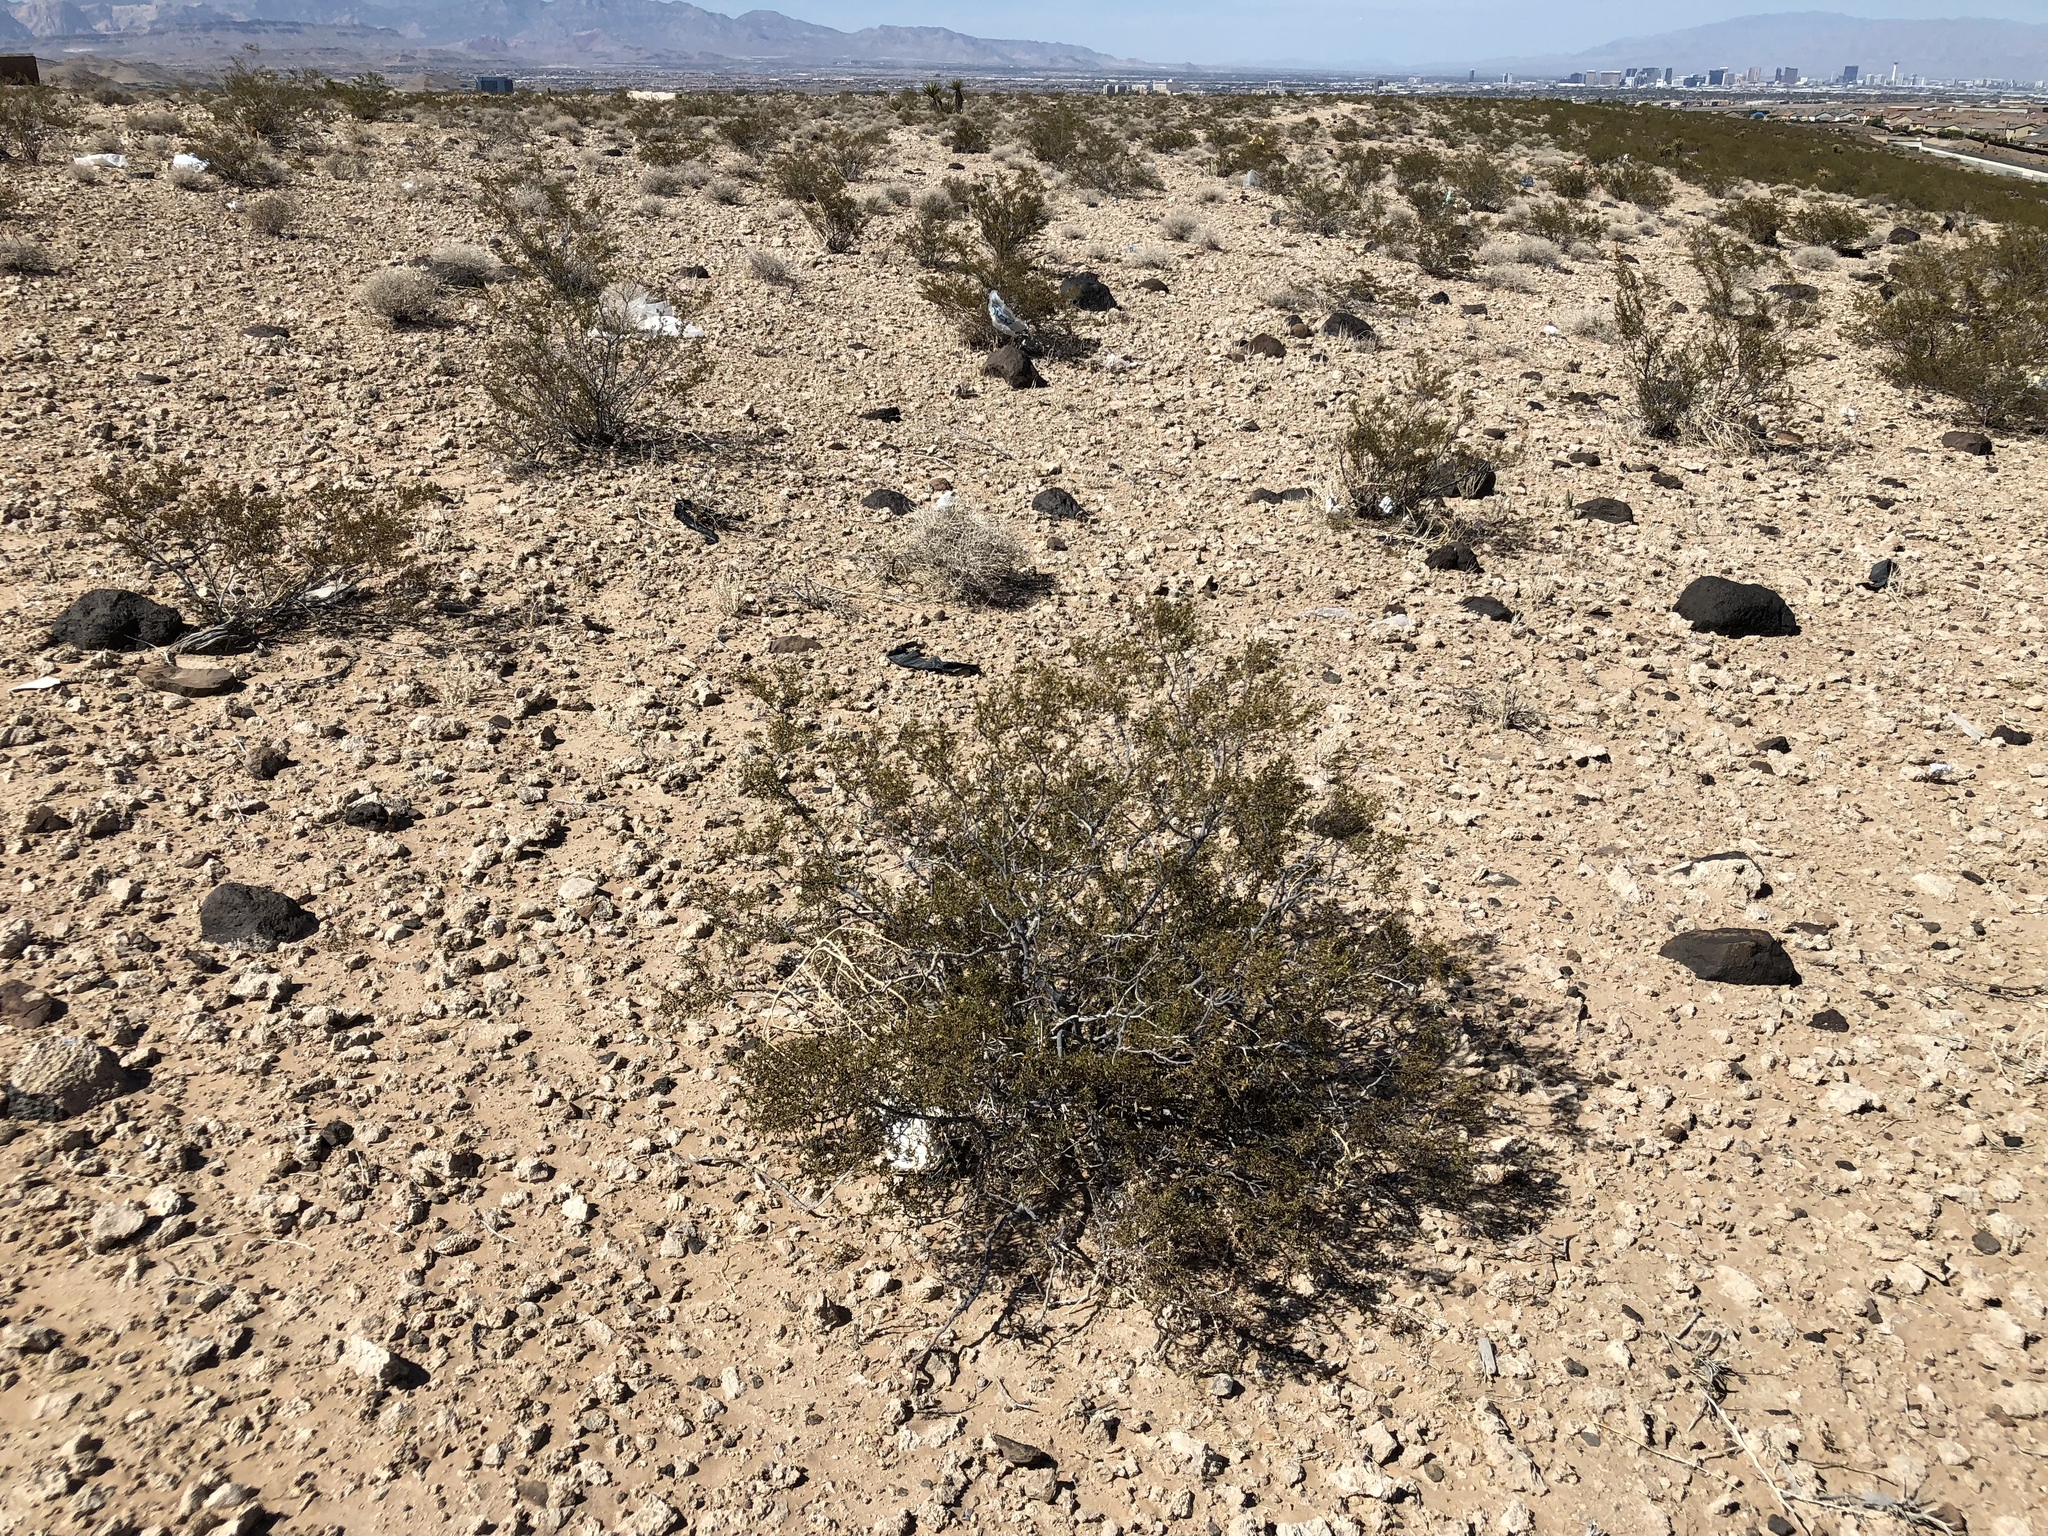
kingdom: Plantae
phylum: Tracheophyta
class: Magnoliopsida
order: Zygophyllales
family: Zygophyllaceae
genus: Larrea
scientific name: Larrea tridentata
